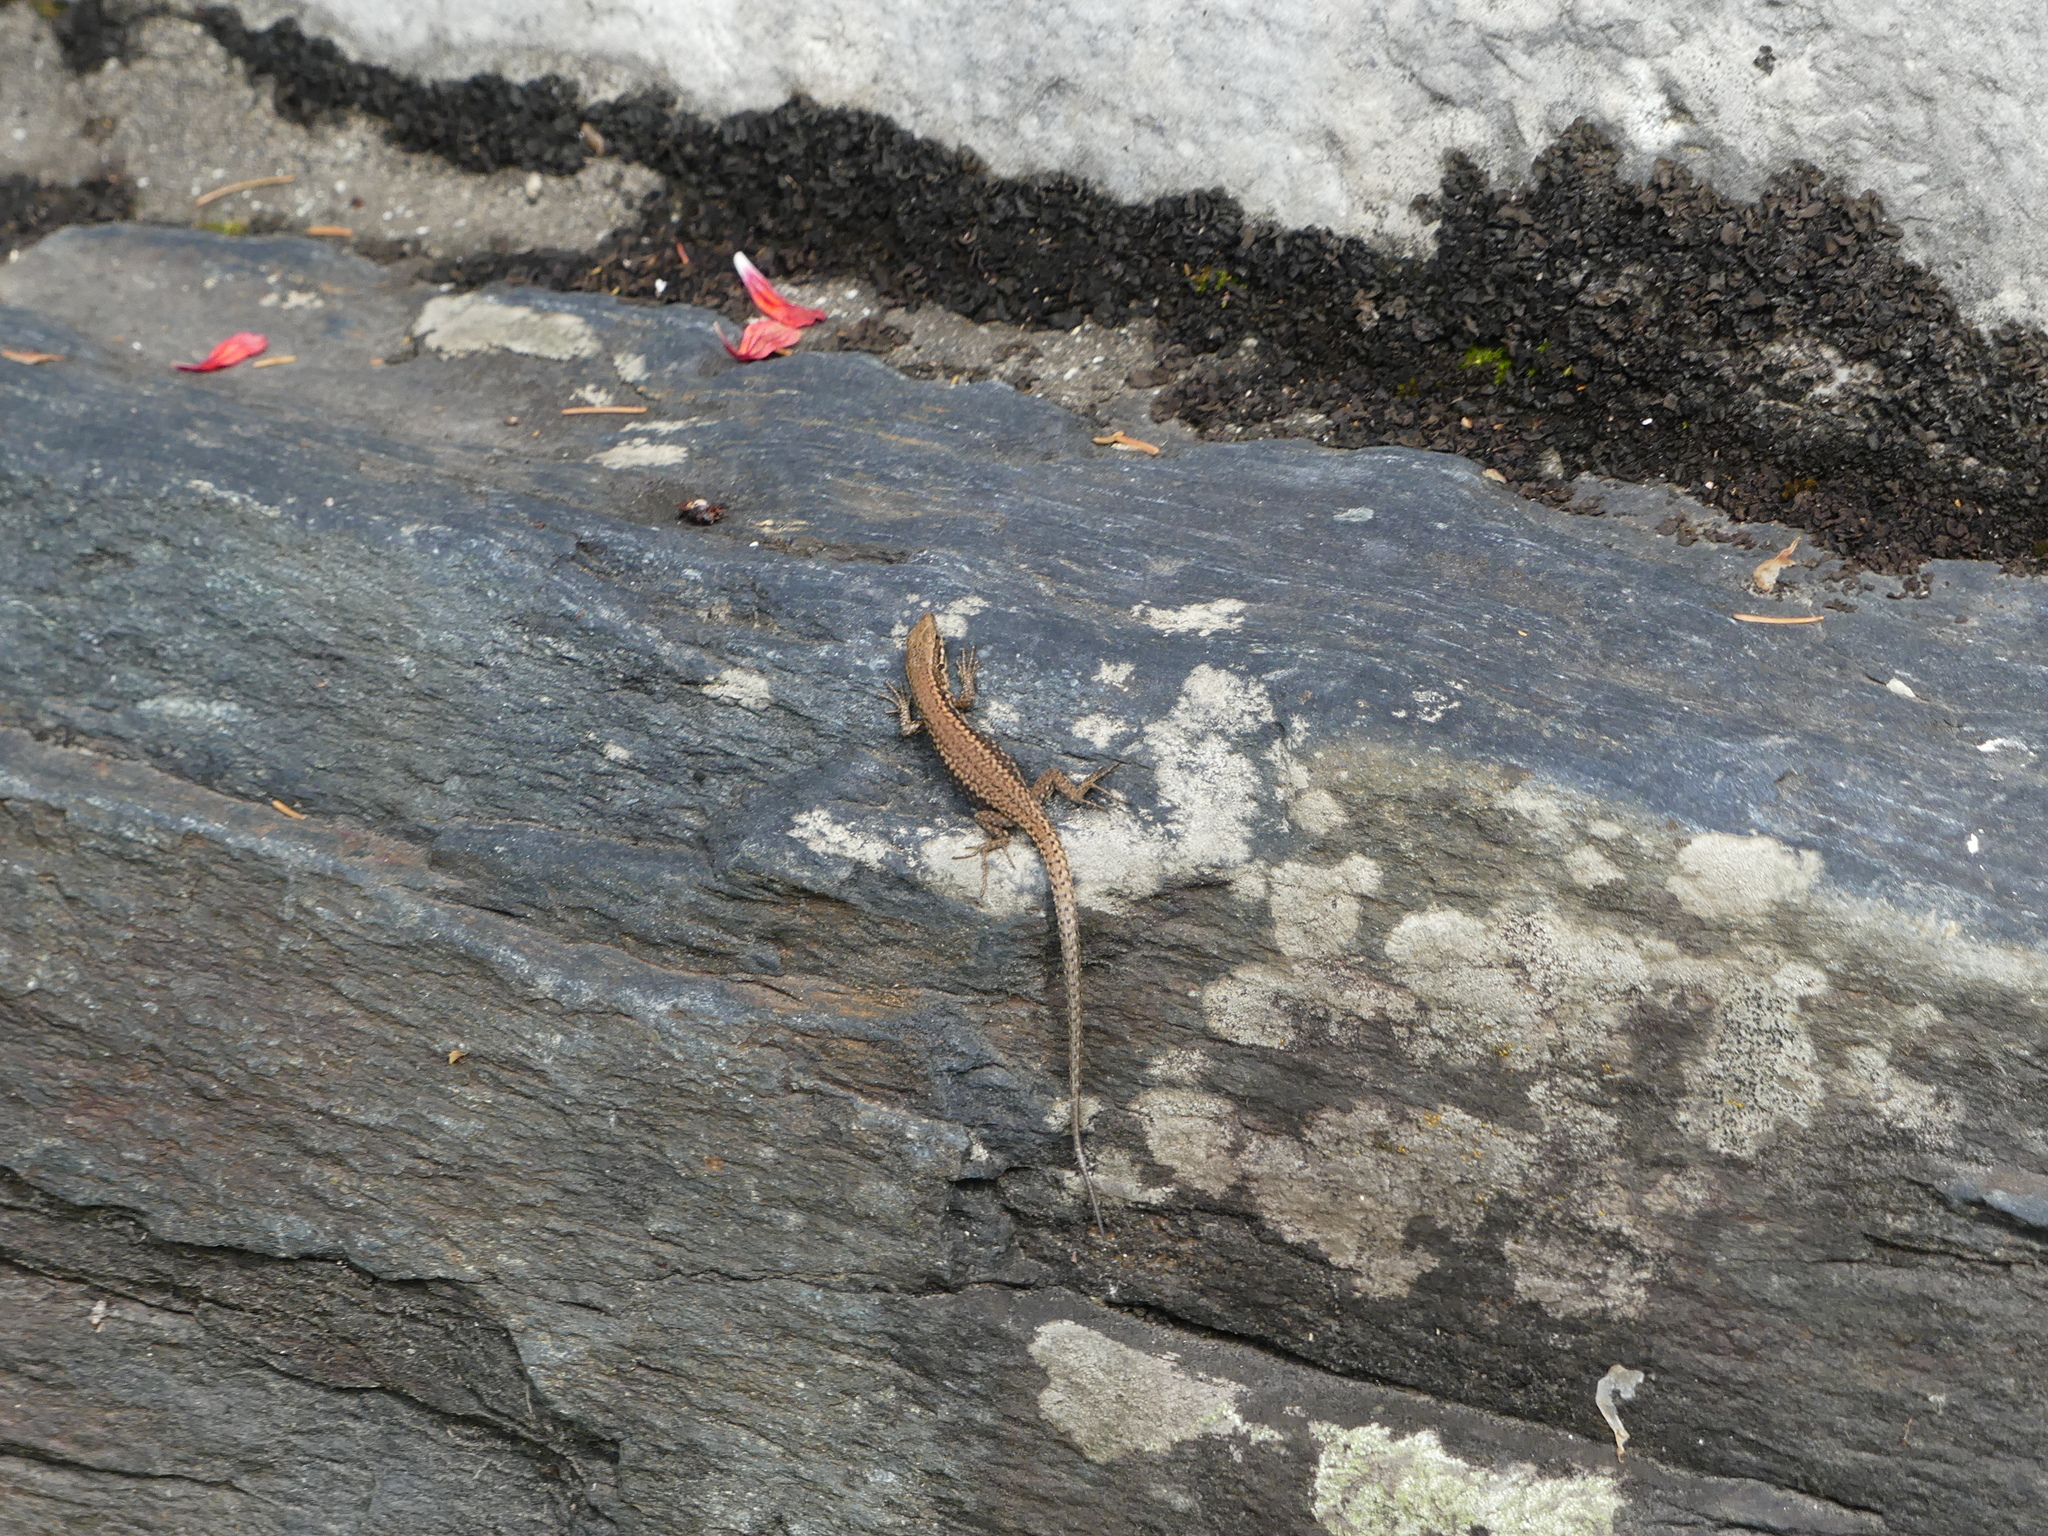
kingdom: Animalia
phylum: Chordata
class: Squamata
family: Lacertidae
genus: Podarcis
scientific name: Podarcis muralis
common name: Common wall lizard
